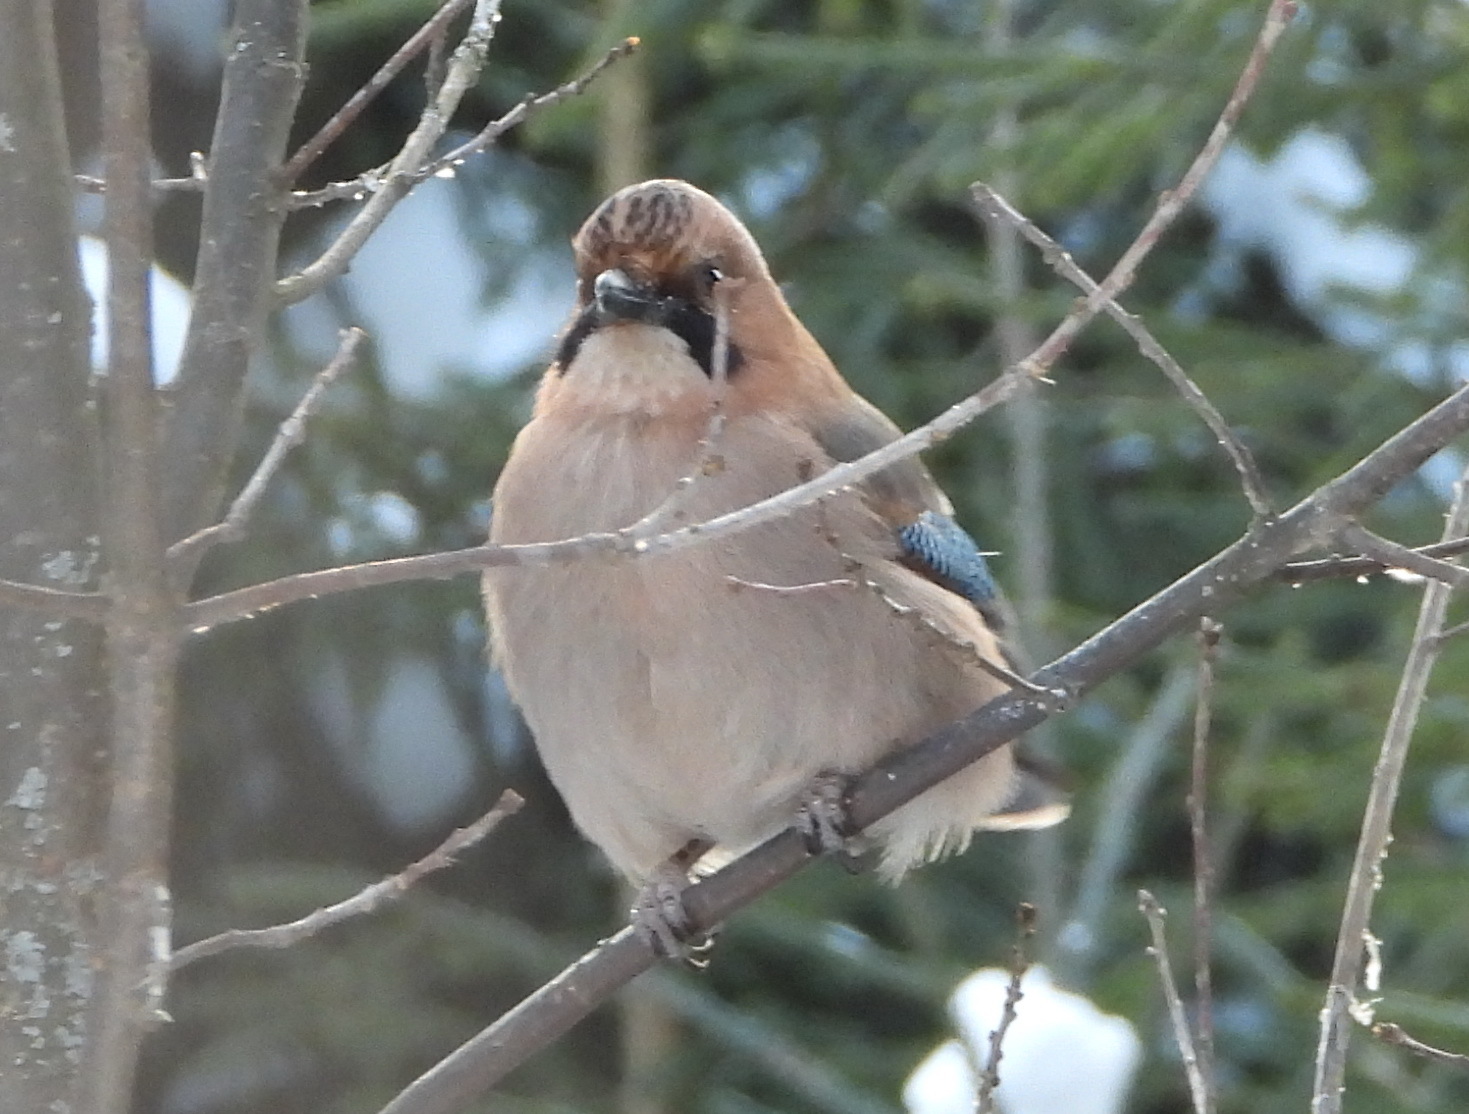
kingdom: Animalia
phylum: Chordata
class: Aves
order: Passeriformes
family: Corvidae
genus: Garrulus
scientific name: Garrulus glandarius
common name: Eurasian jay
